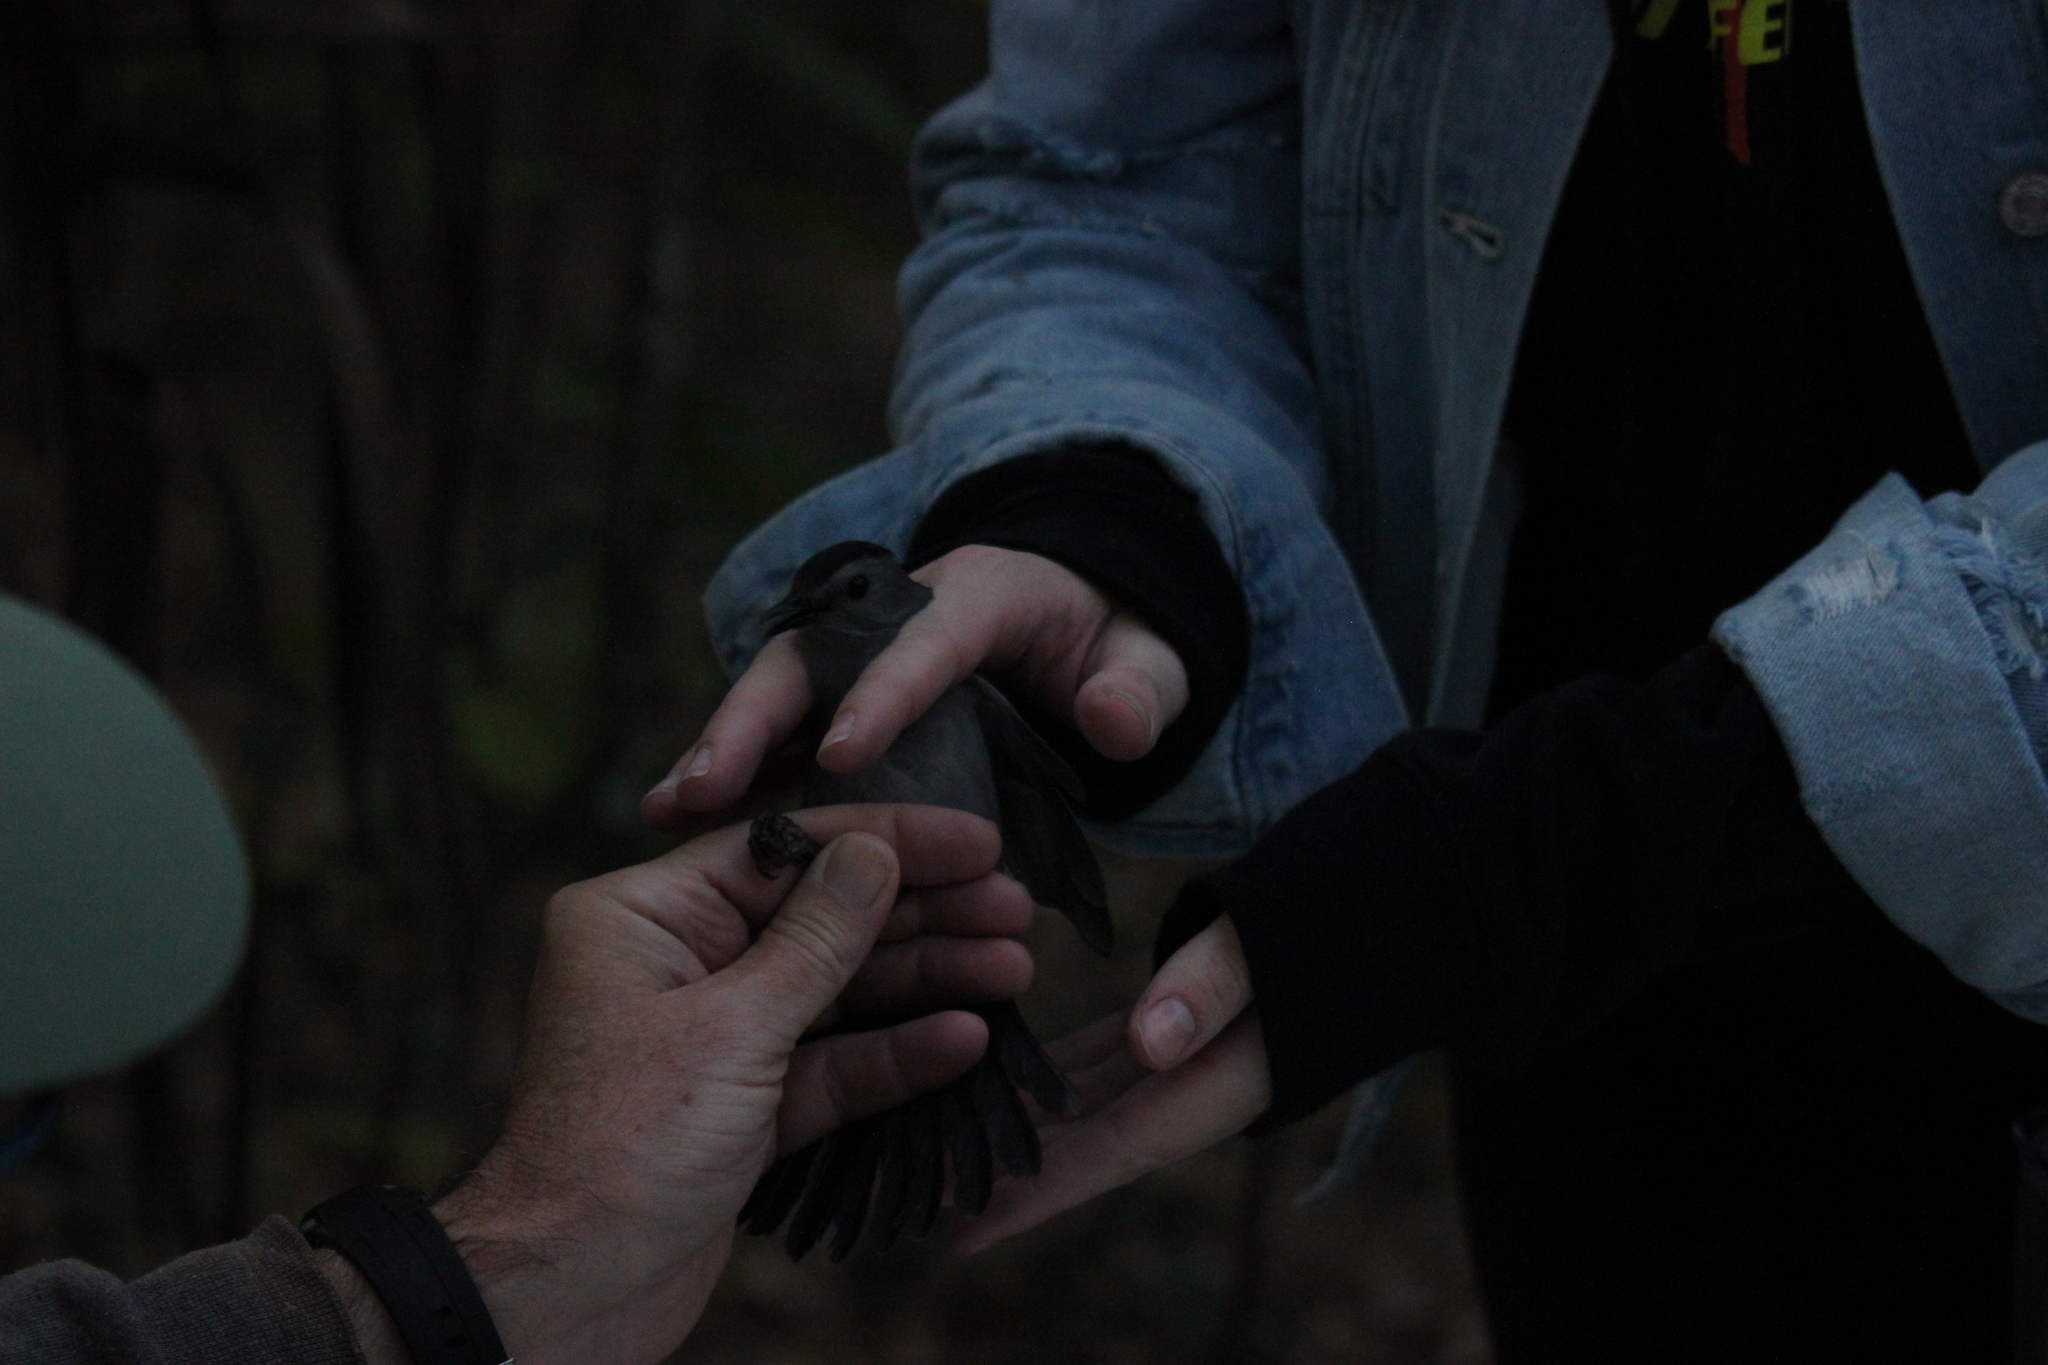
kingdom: Animalia
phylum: Chordata
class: Aves
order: Passeriformes
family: Mimidae
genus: Dumetella
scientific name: Dumetella carolinensis
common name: Gray catbird
